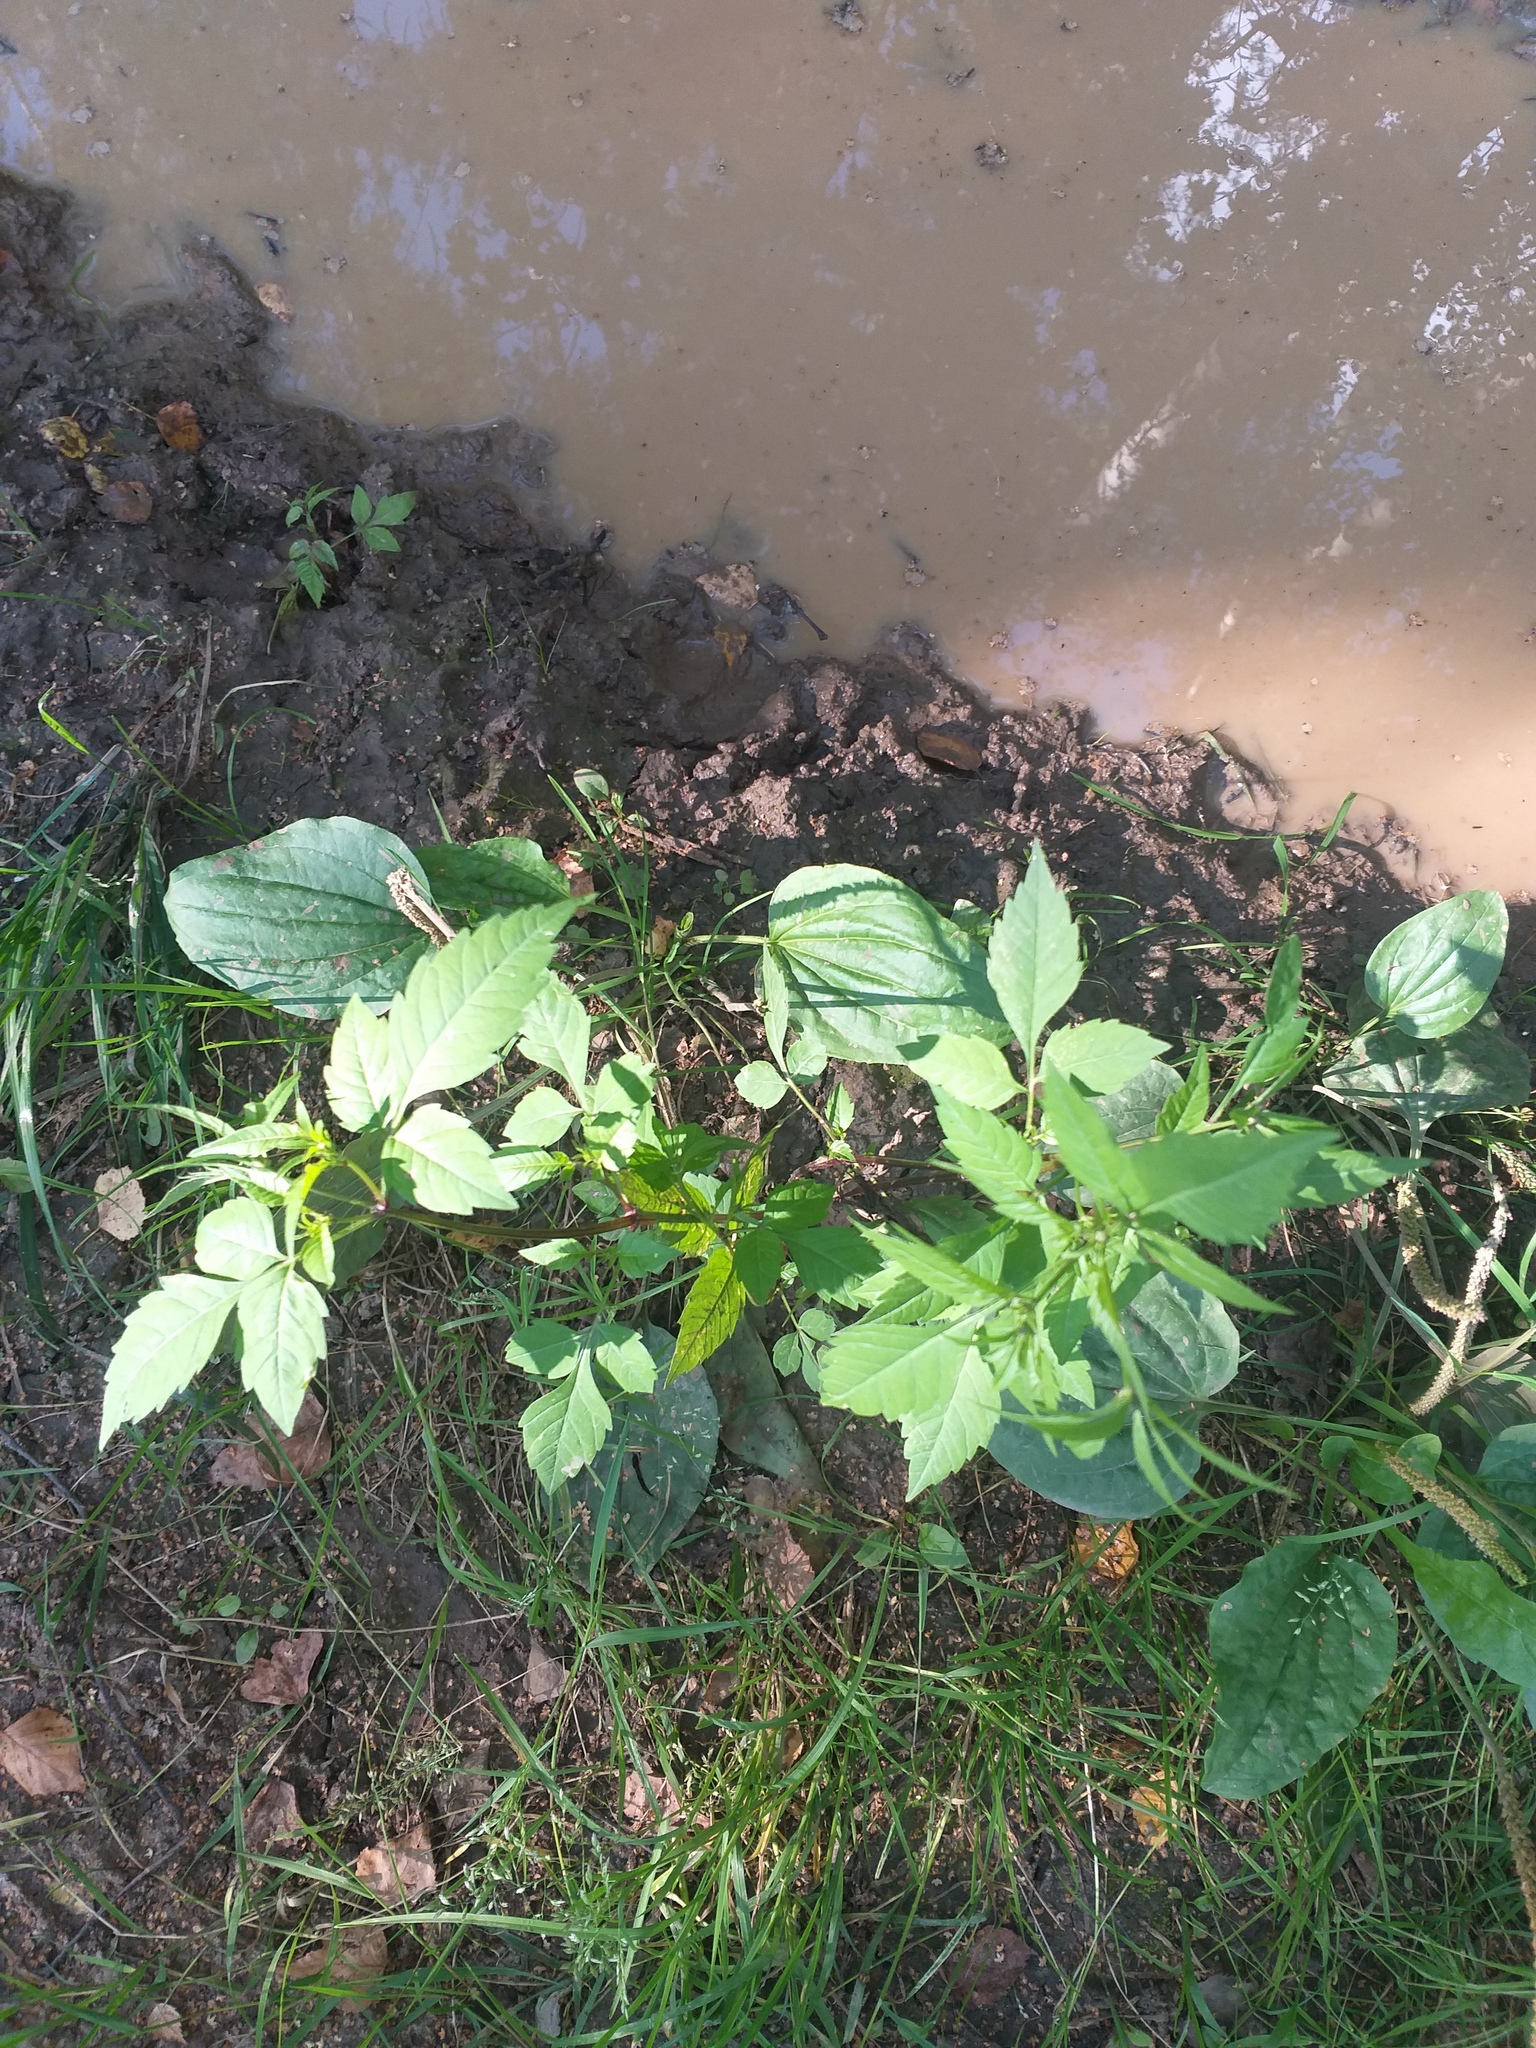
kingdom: Plantae
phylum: Tracheophyta
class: Magnoliopsida
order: Asterales
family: Asteraceae
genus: Bidens
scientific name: Bidens frondosa
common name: Beggarticks
